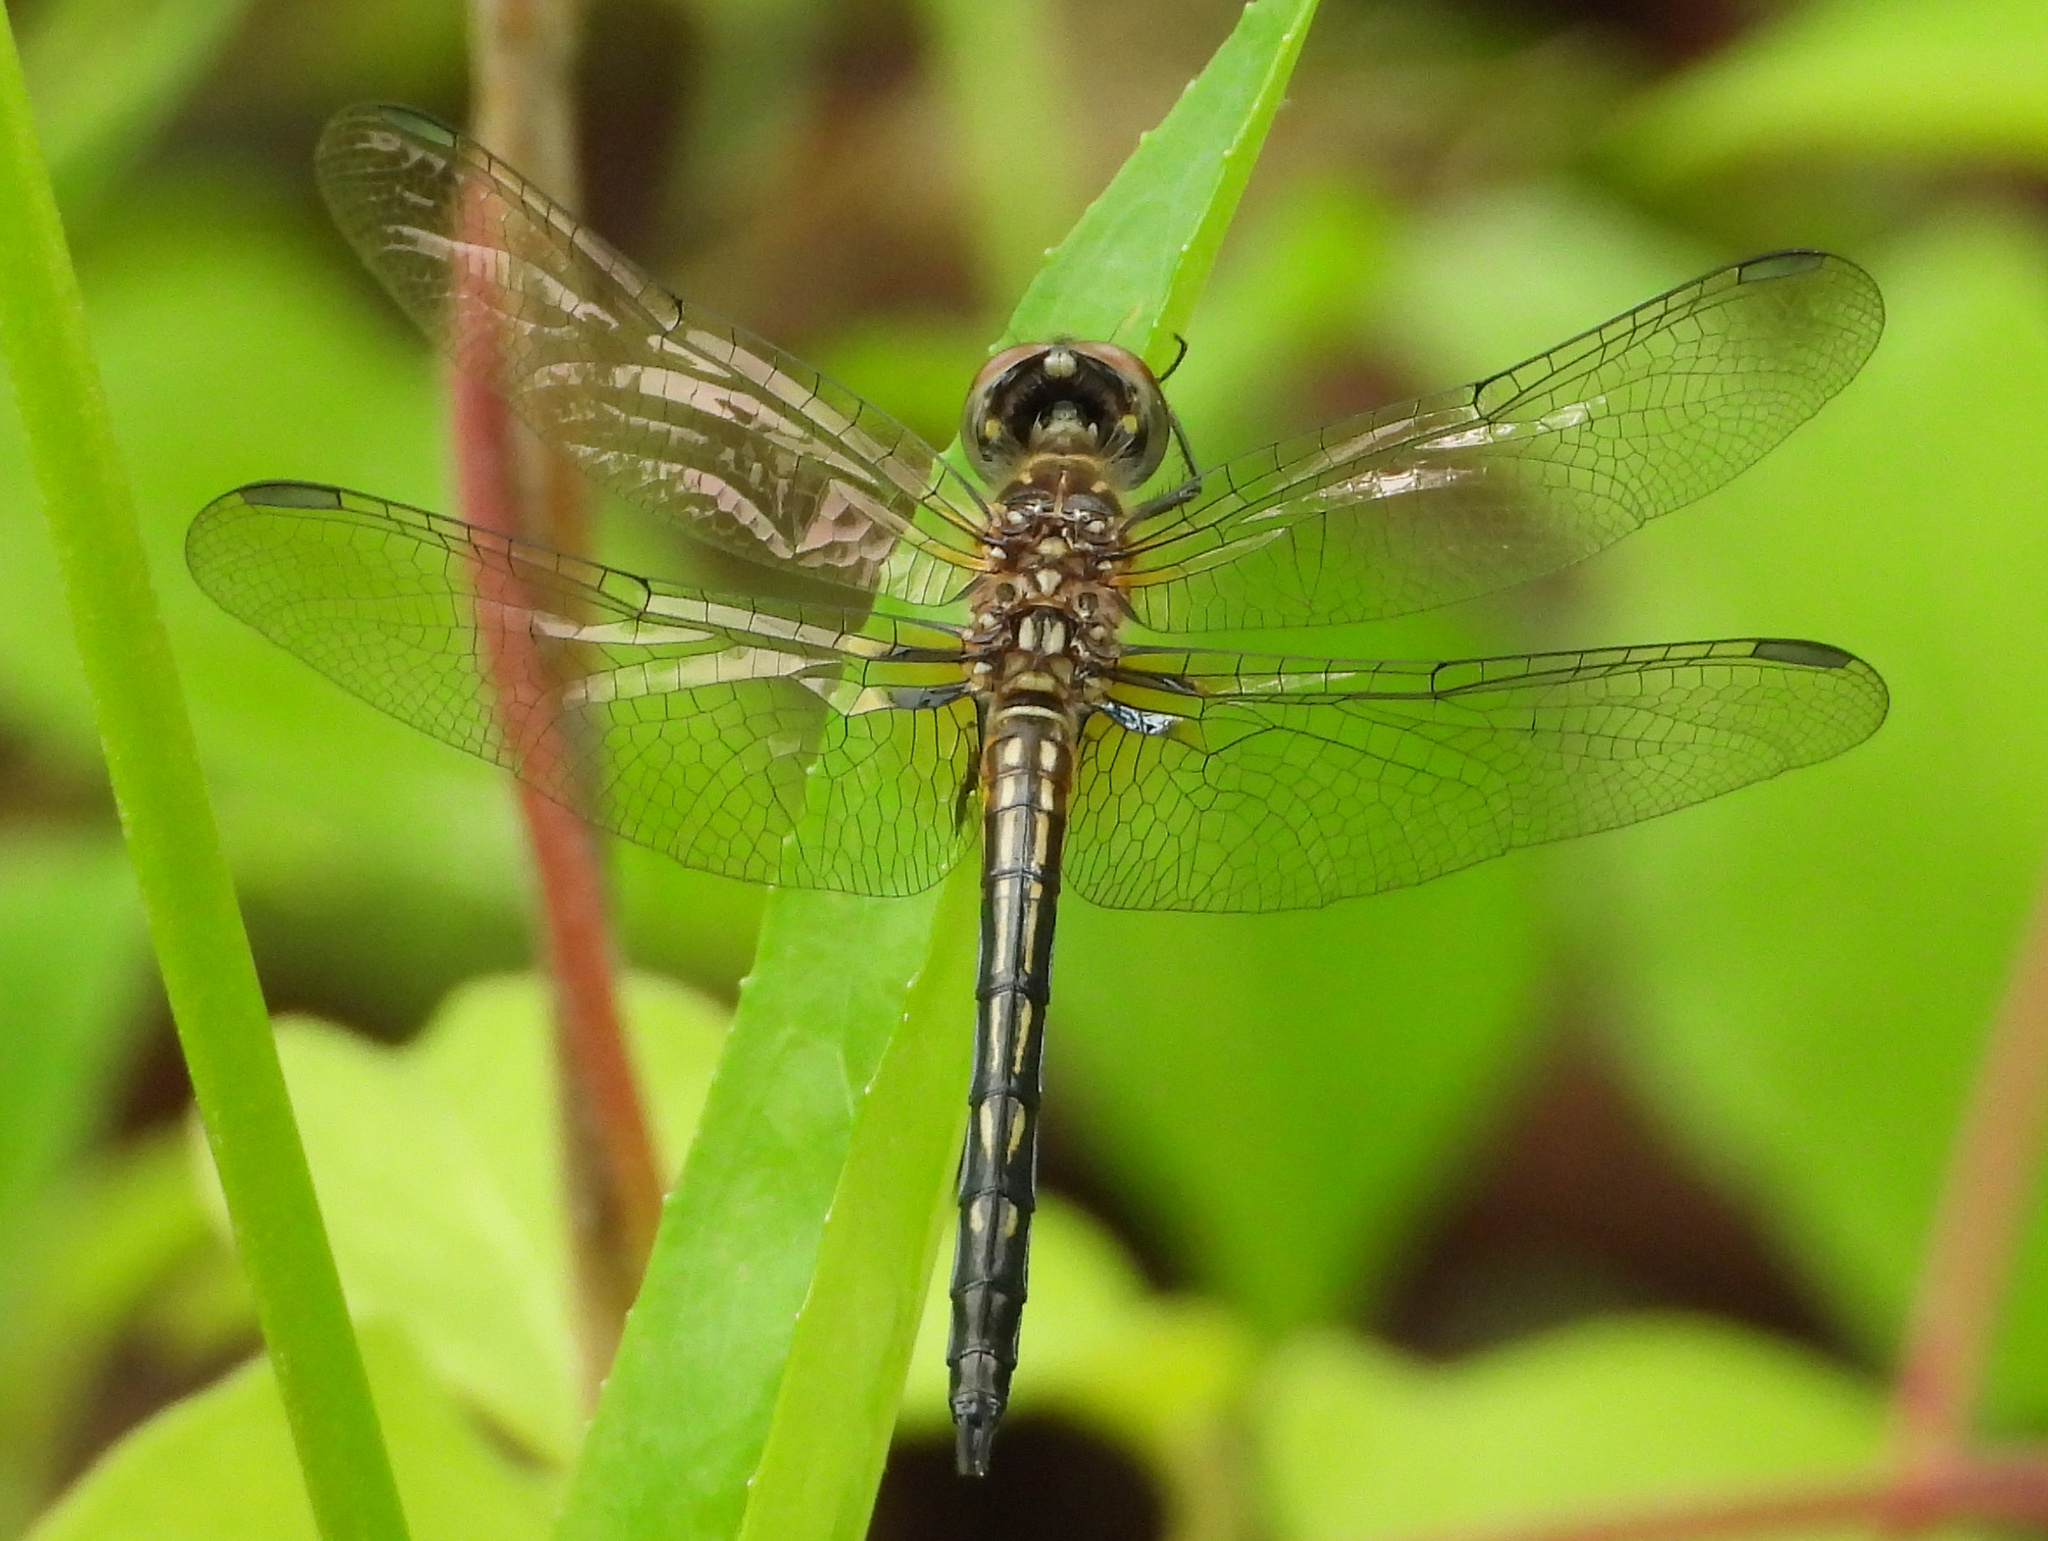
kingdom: Animalia
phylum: Arthropoda
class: Insecta
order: Odonata
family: Libellulidae
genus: Pachydiplax
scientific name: Pachydiplax longipennis
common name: Blue dasher
